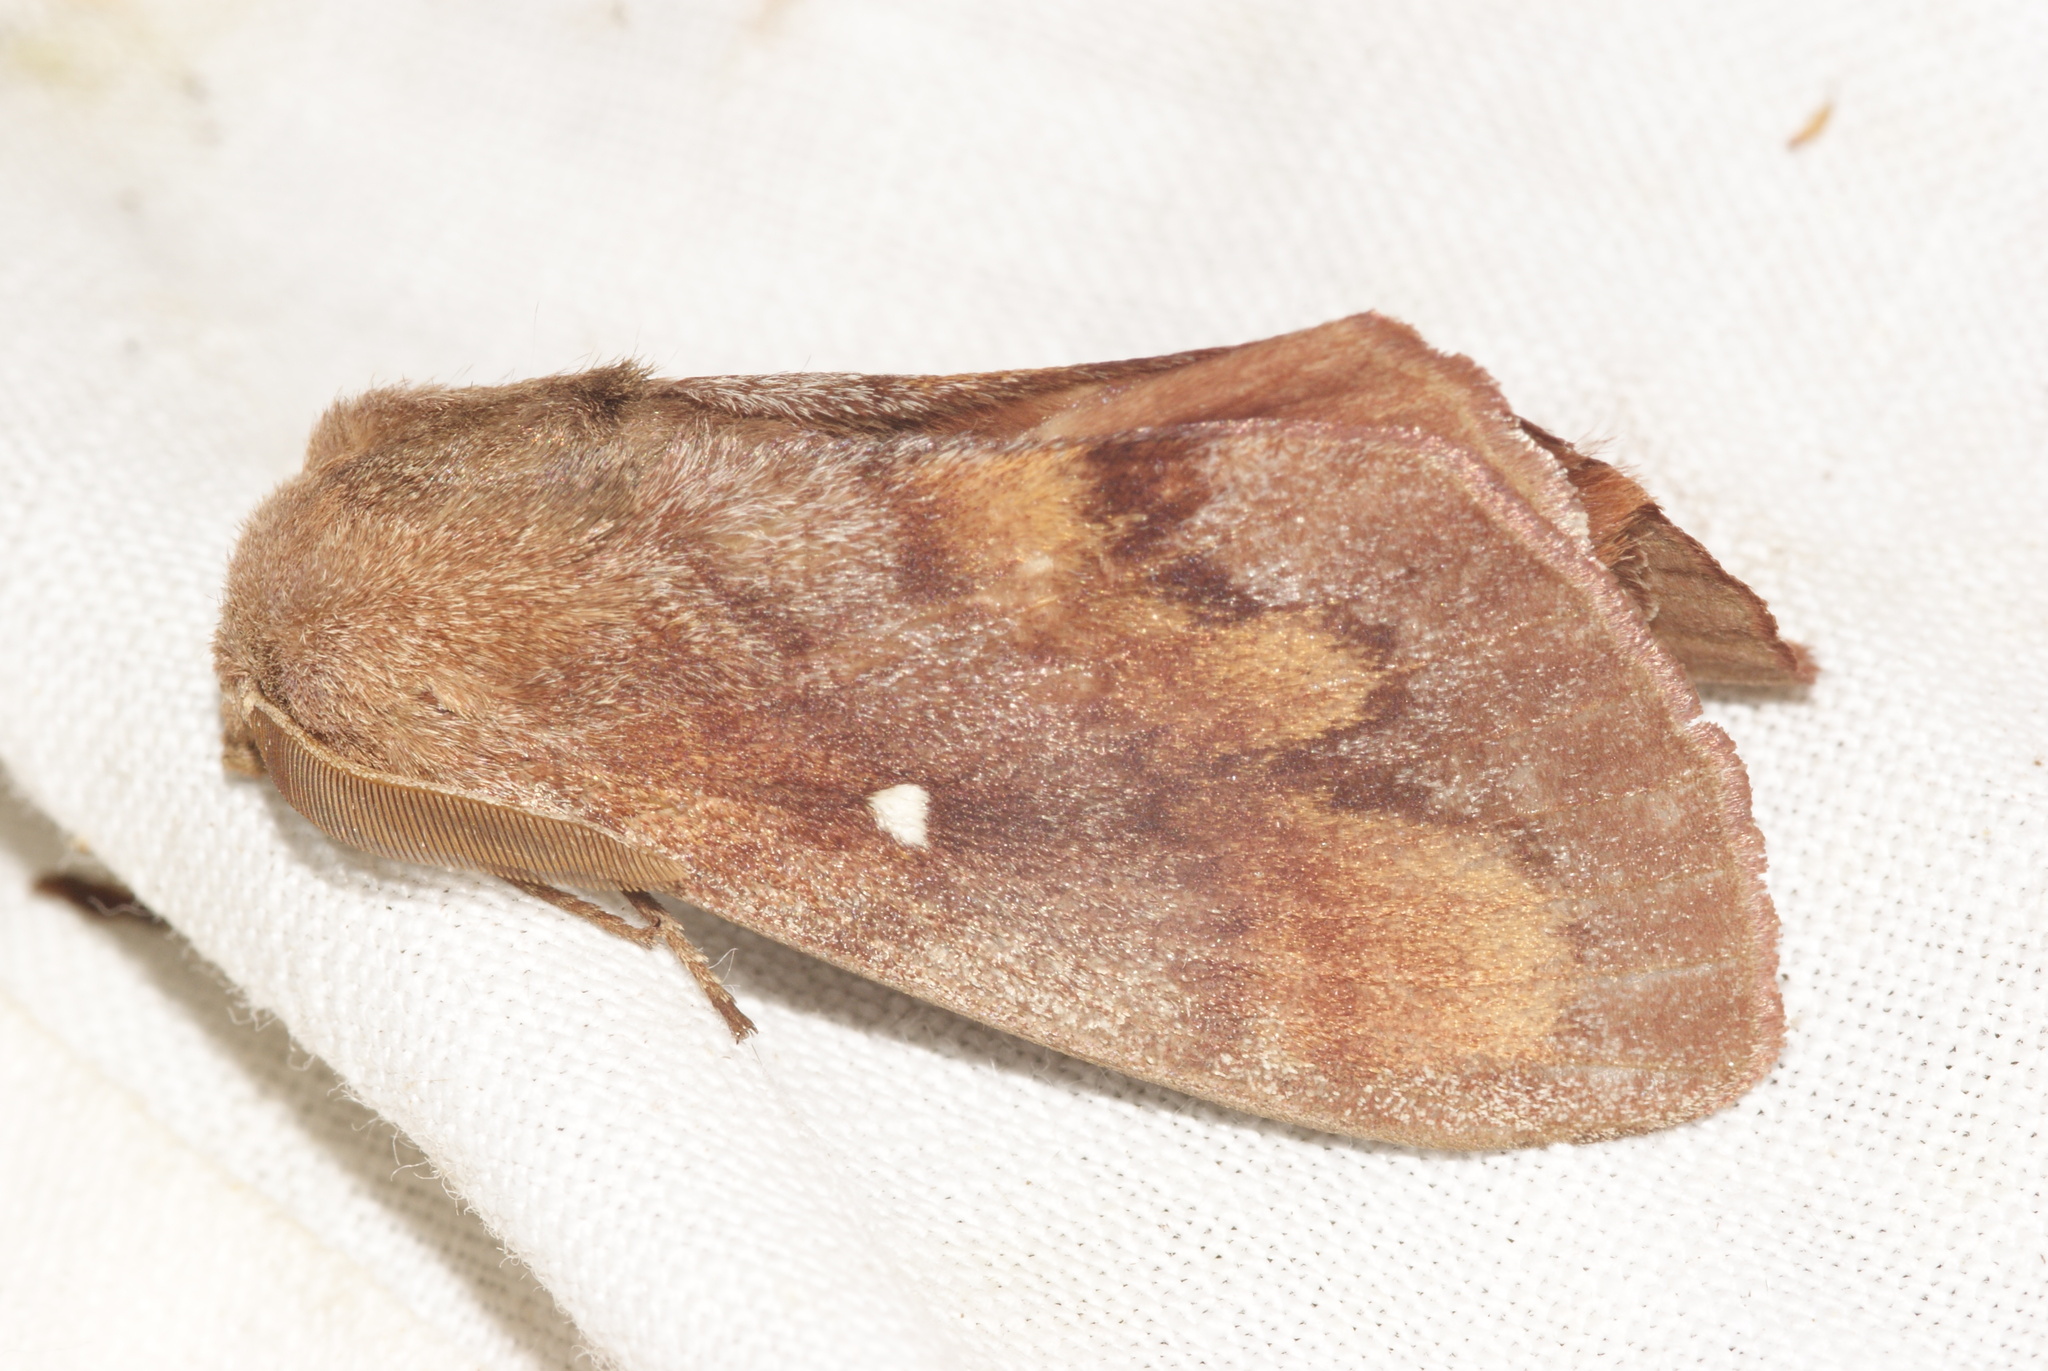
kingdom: Animalia
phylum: Arthropoda
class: Insecta
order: Lepidoptera
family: Lasiocampidae
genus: Dendrolimus
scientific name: Dendrolimus pini
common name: Pine-tree lappet
